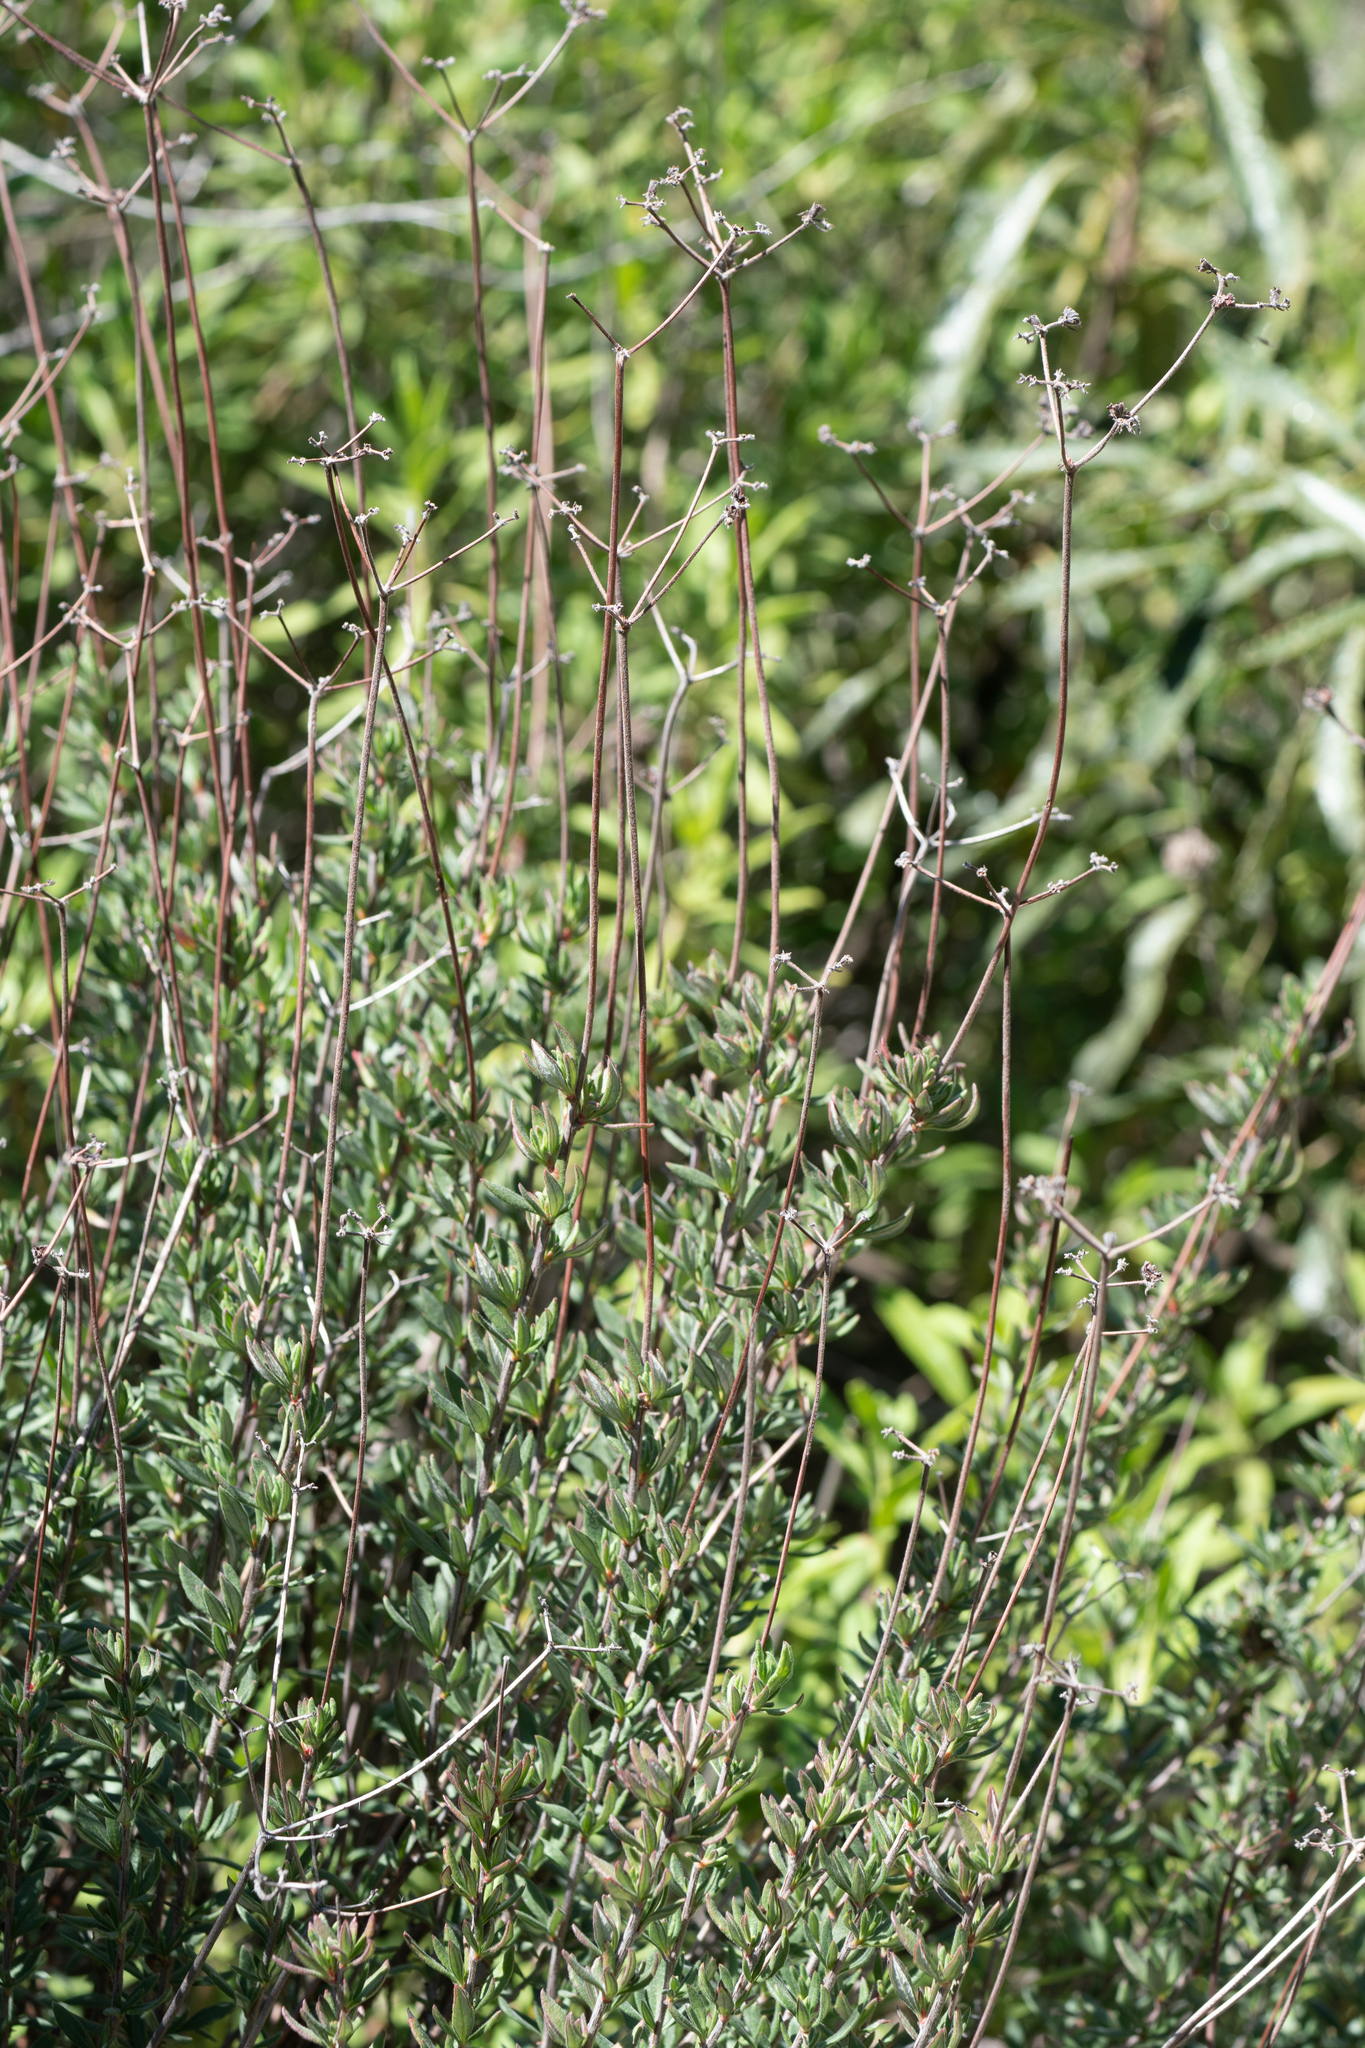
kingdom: Plantae
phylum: Tracheophyta
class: Magnoliopsida
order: Caryophyllales
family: Polygonaceae
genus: Eriogonum
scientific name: Eriogonum fasciculatum
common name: California wild buckwheat
